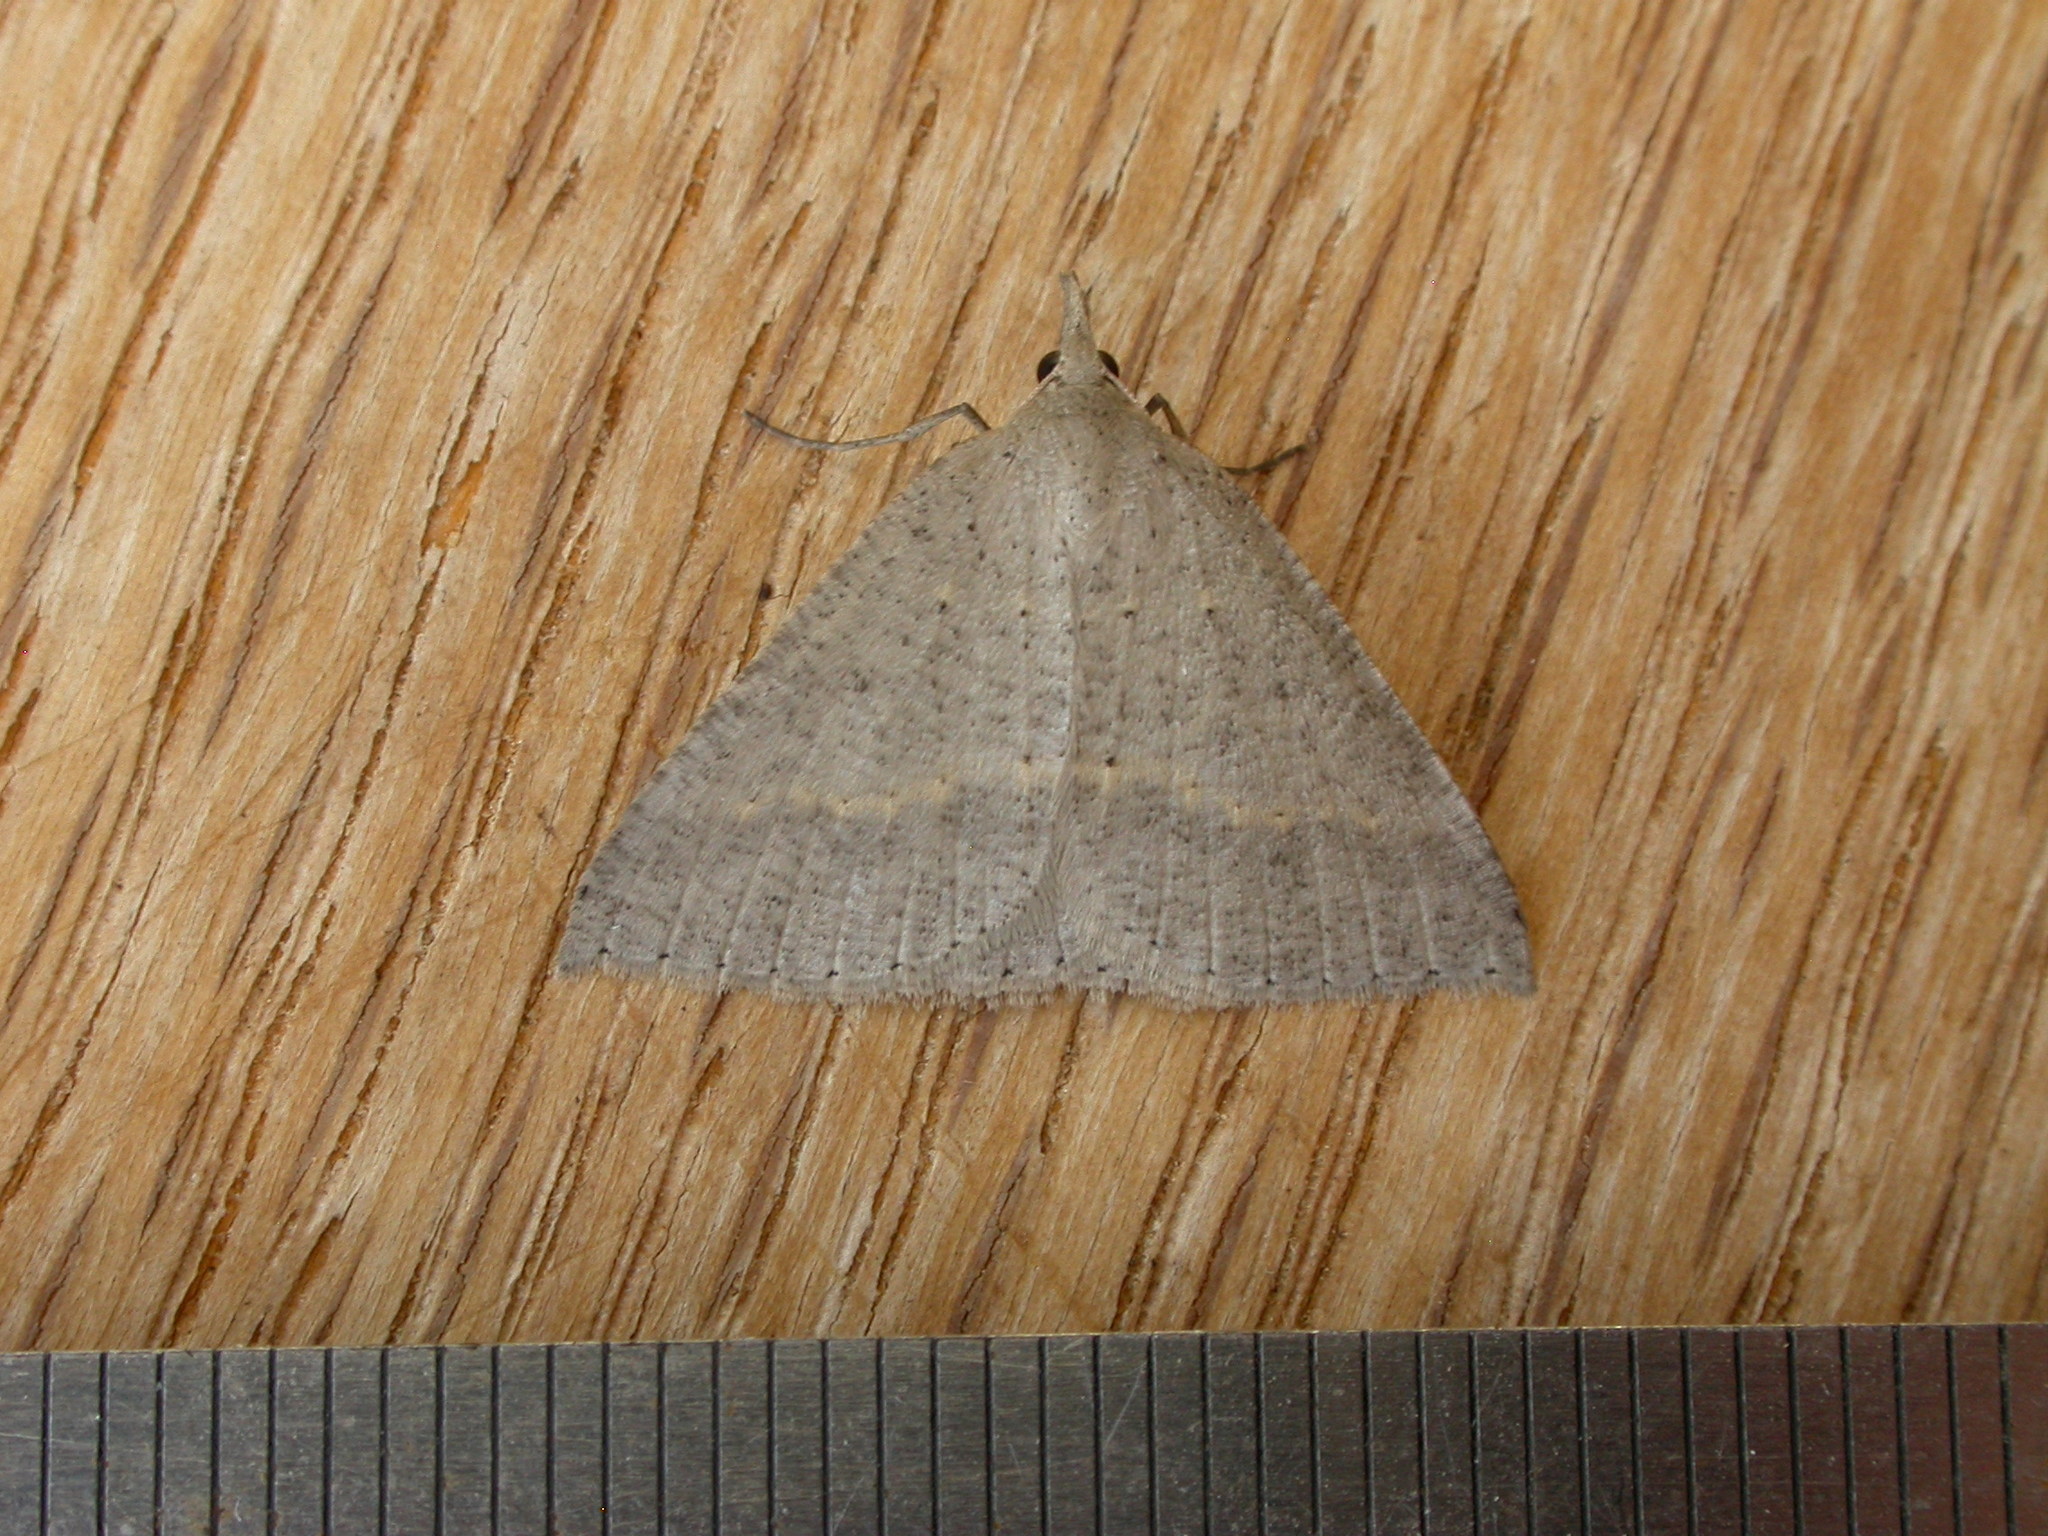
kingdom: Animalia
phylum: Arthropoda
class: Insecta
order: Lepidoptera
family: Geometridae
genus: Nearcha
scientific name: Nearcha nullata
